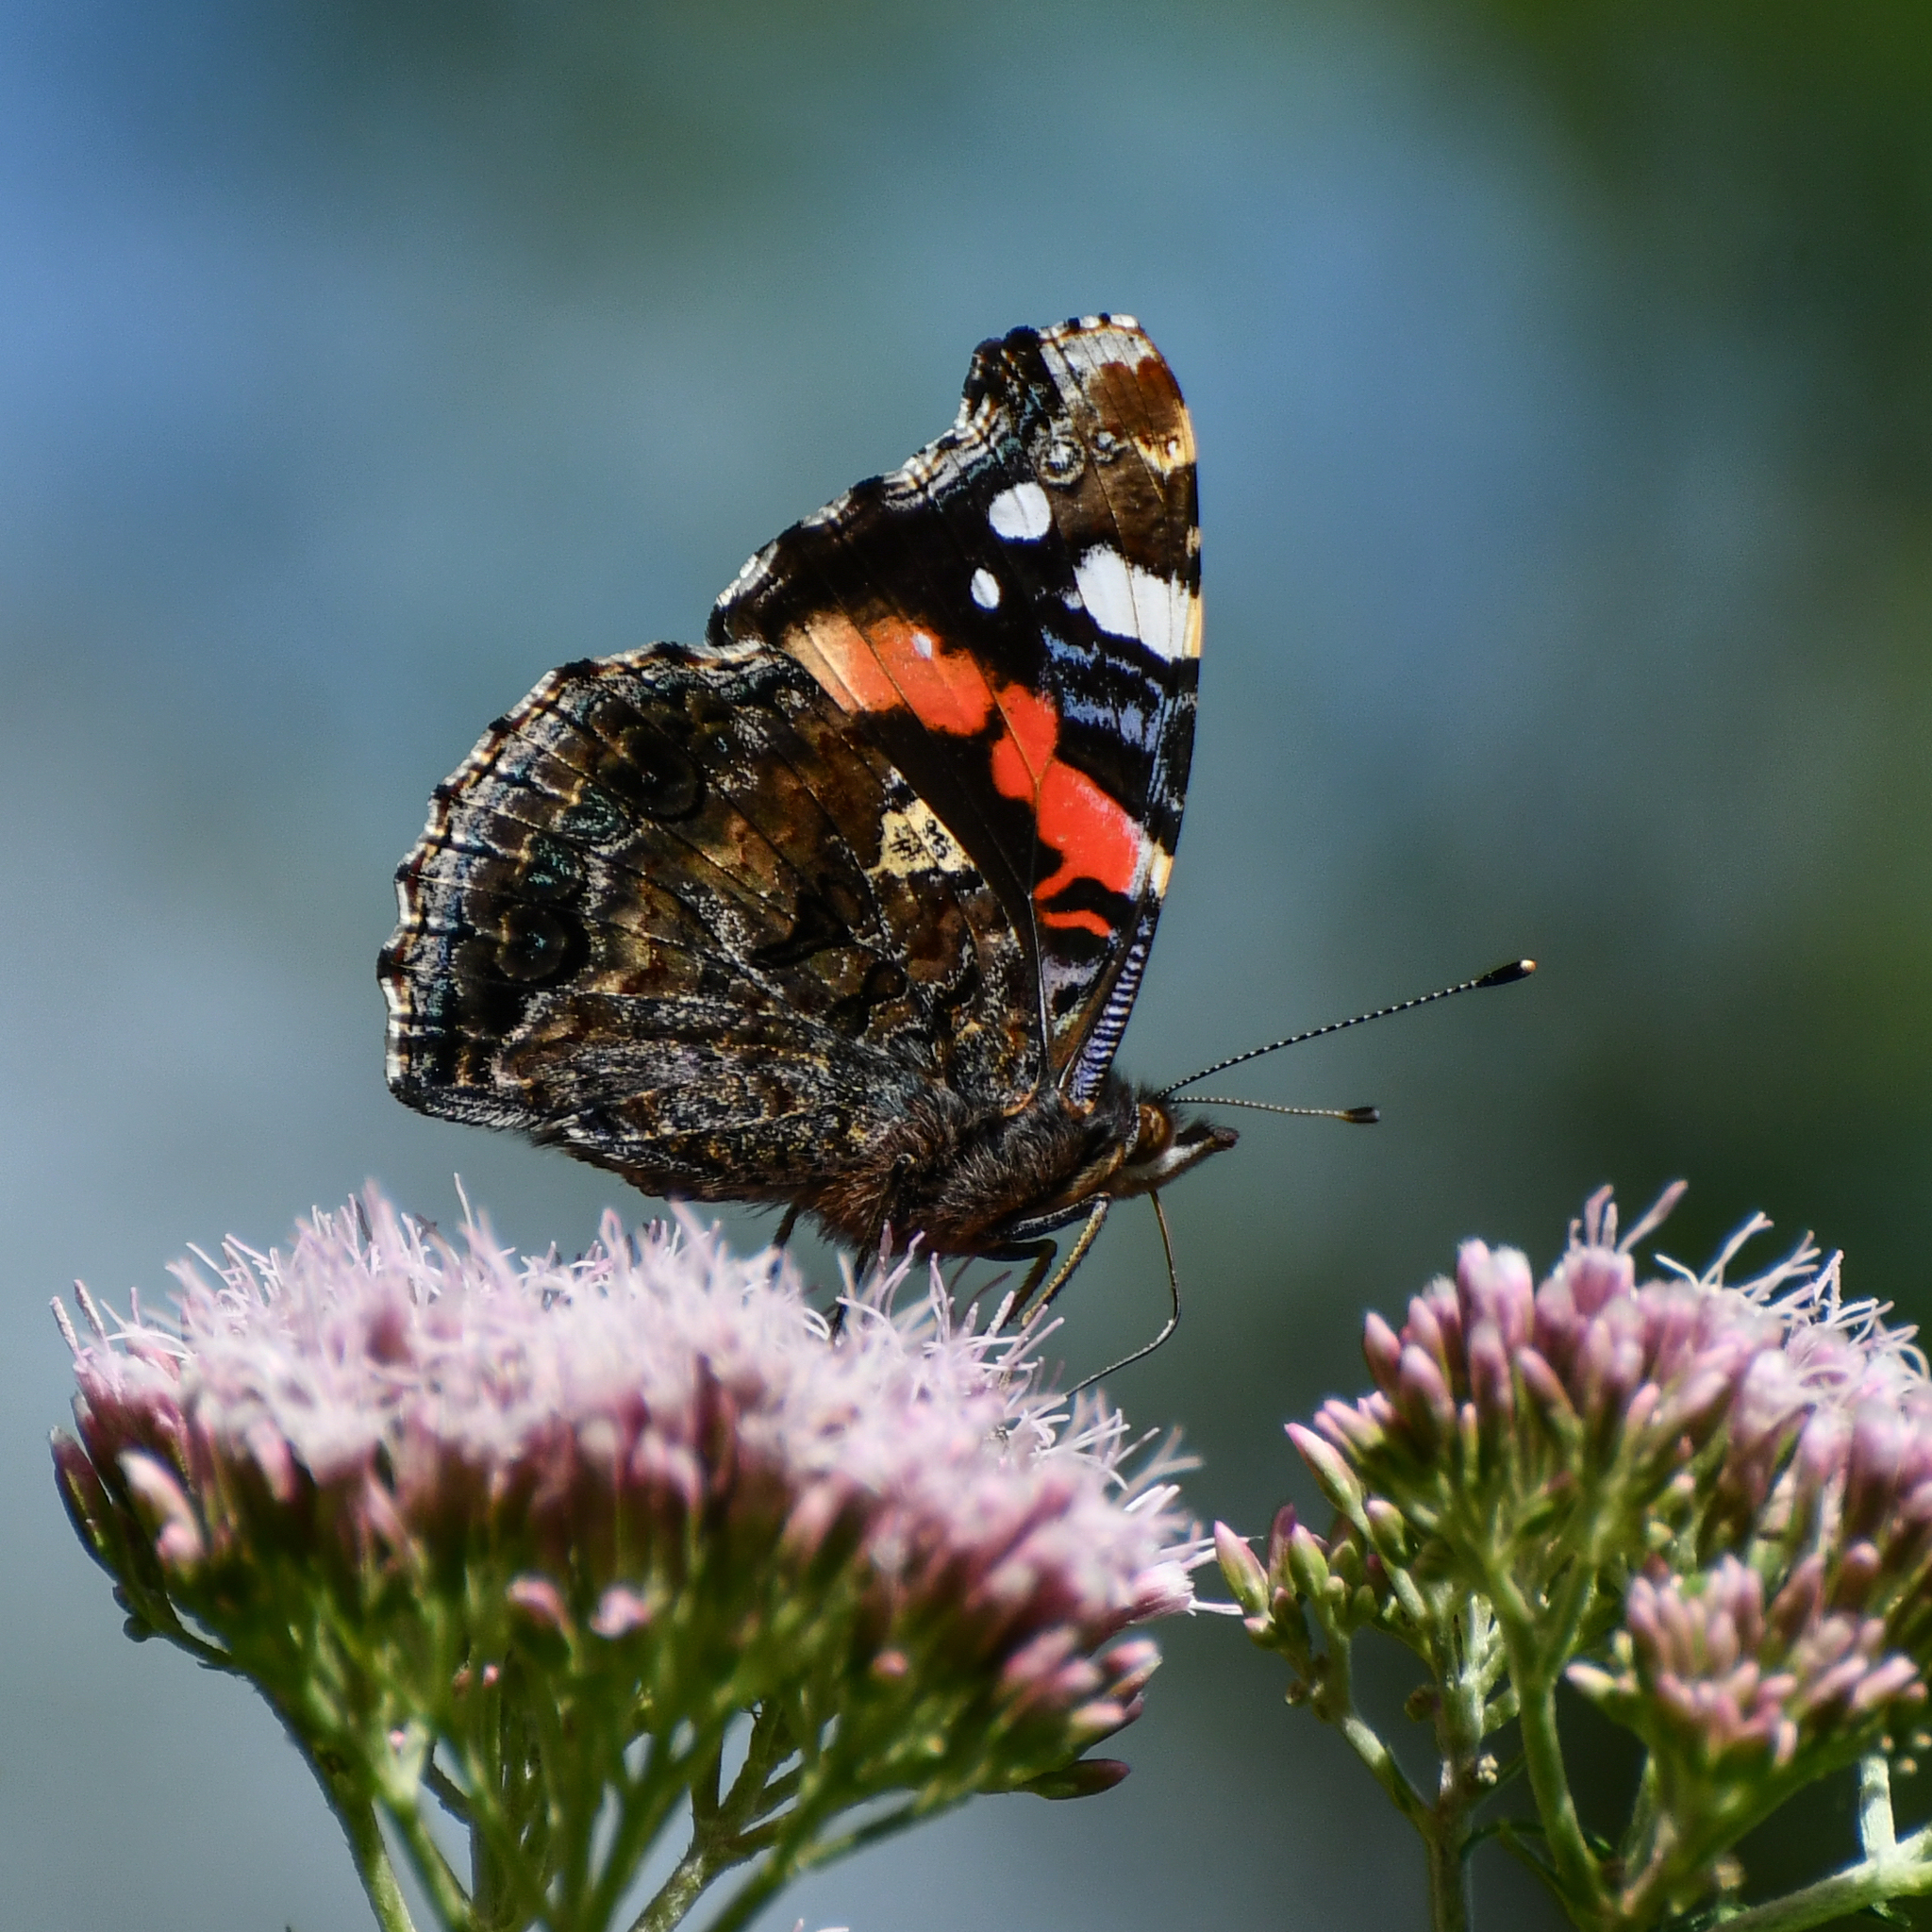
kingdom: Animalia
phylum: Arthropoda
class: Insecta
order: Lepidoptera
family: Nymphalidae
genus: Vanessa
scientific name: Vanessa atalanta
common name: Red admiral
